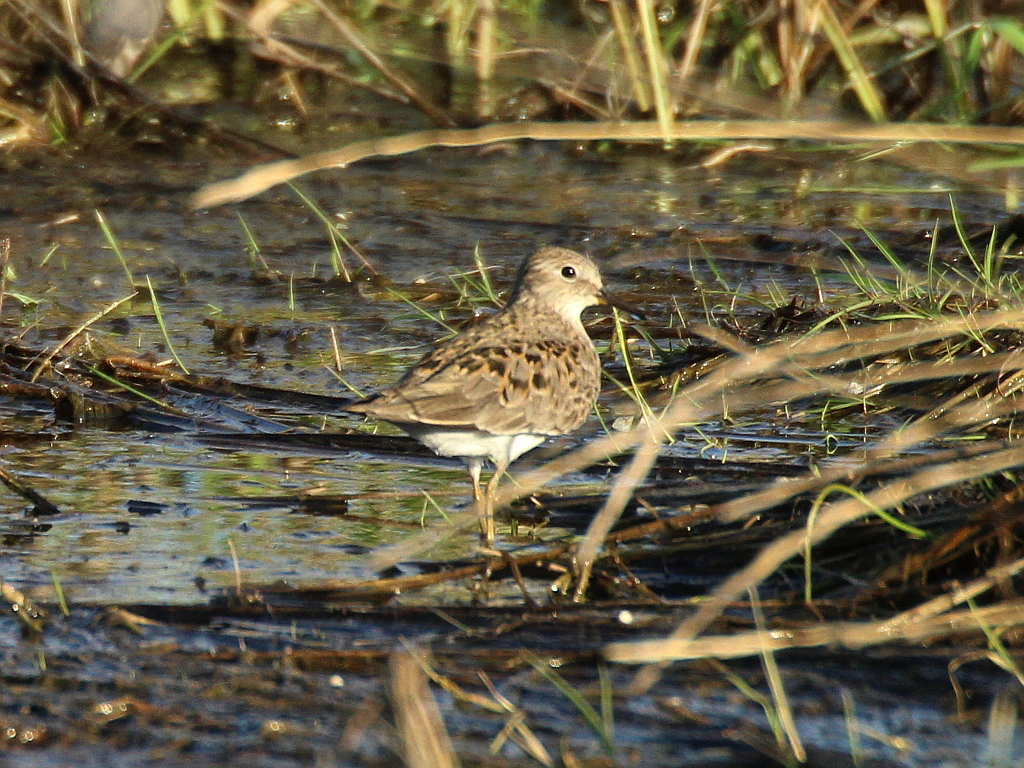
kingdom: Animalia
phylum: Chordata
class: Aves
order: Charadriiformes
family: Scolopacidae
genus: Calidris
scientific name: Calidris temminckii
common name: Temminck's stint
